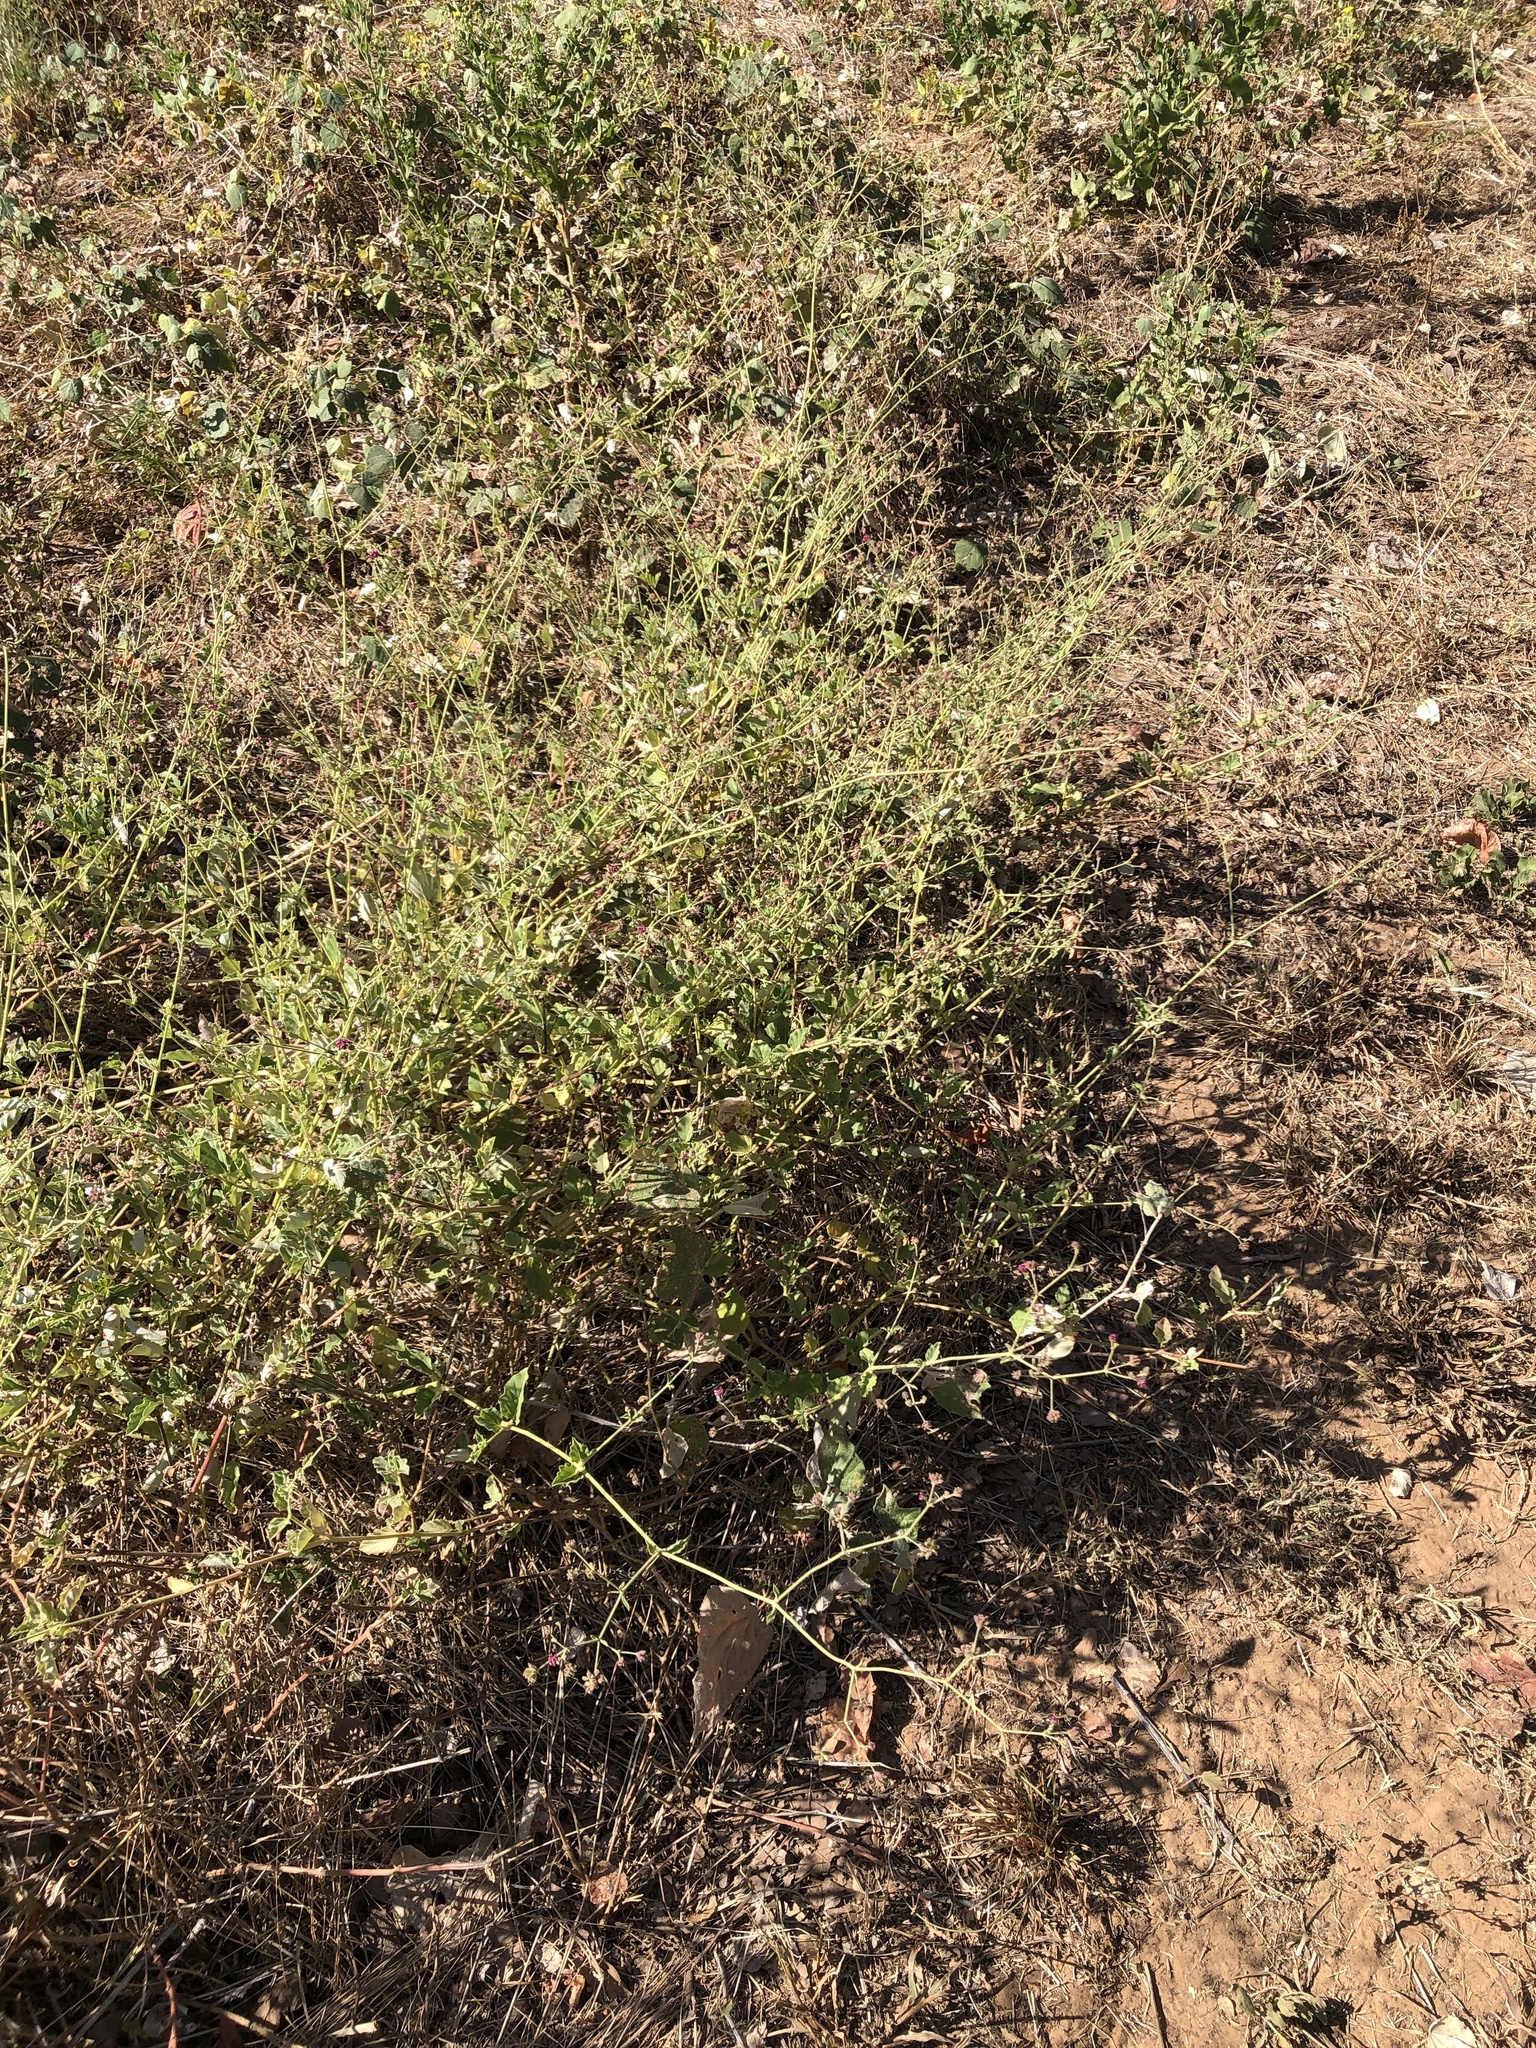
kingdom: Plantae
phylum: Tracheophyta
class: Magnoliopsida
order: Caryophyllales
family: Nyctaginaceae
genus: Boerhavia
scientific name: Boerhavia coccinea
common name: Scarlet spiderling
